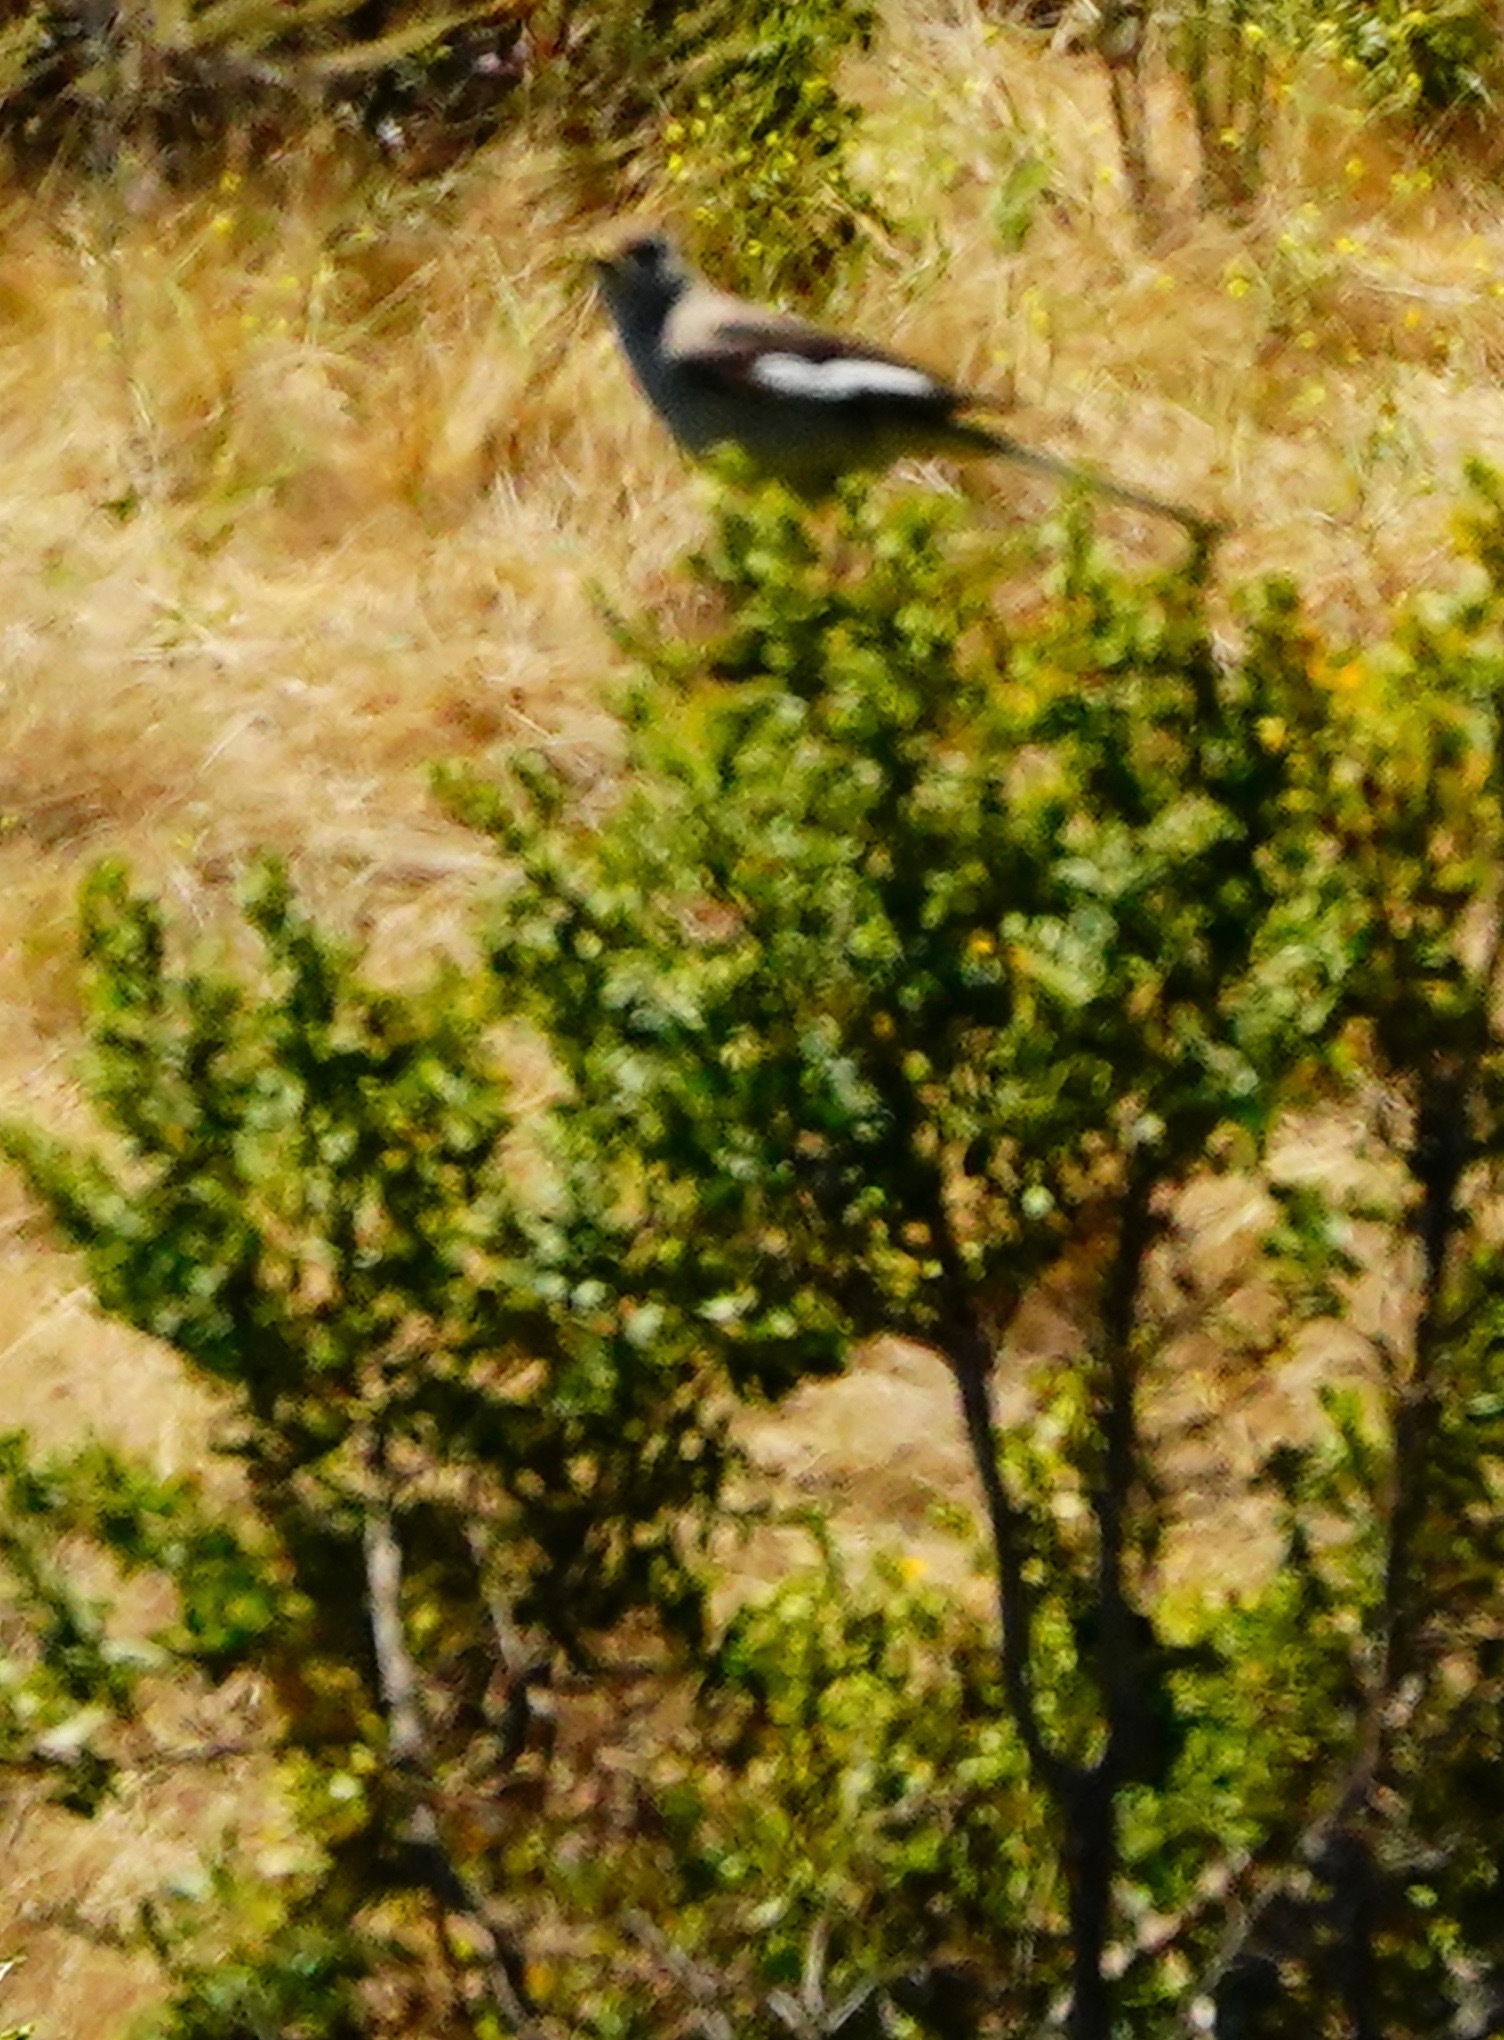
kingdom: Animalia
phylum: Chordata
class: Aves
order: Passeriformes
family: Mimidae
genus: Mimus
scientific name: Mimus polyglottos
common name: Northern mockingbird
